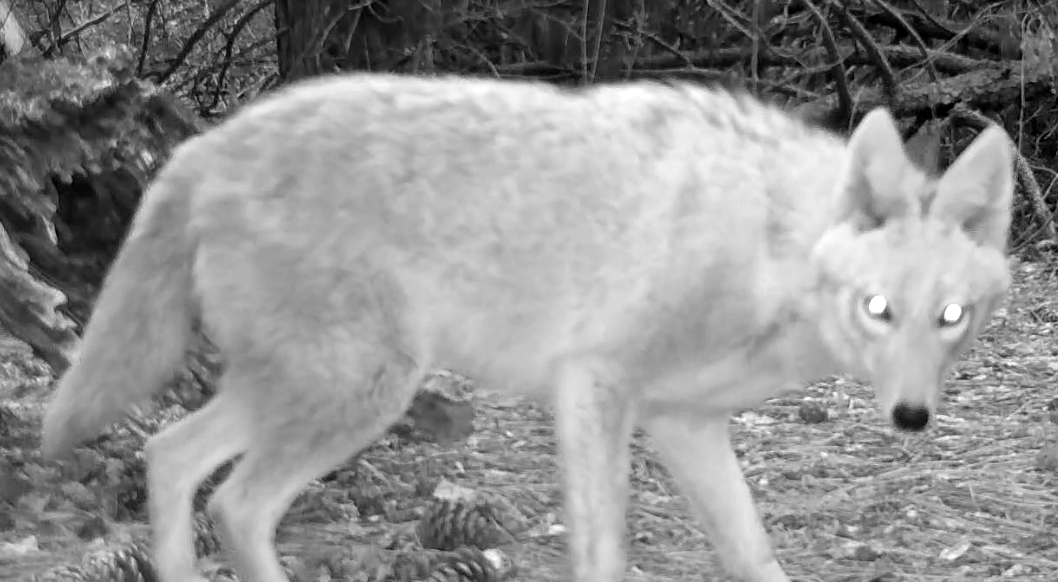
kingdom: Animalia
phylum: Chordata
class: Mammalia
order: Carnivora
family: Canidae
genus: Canis
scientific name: Canis latrans
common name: Coyote
